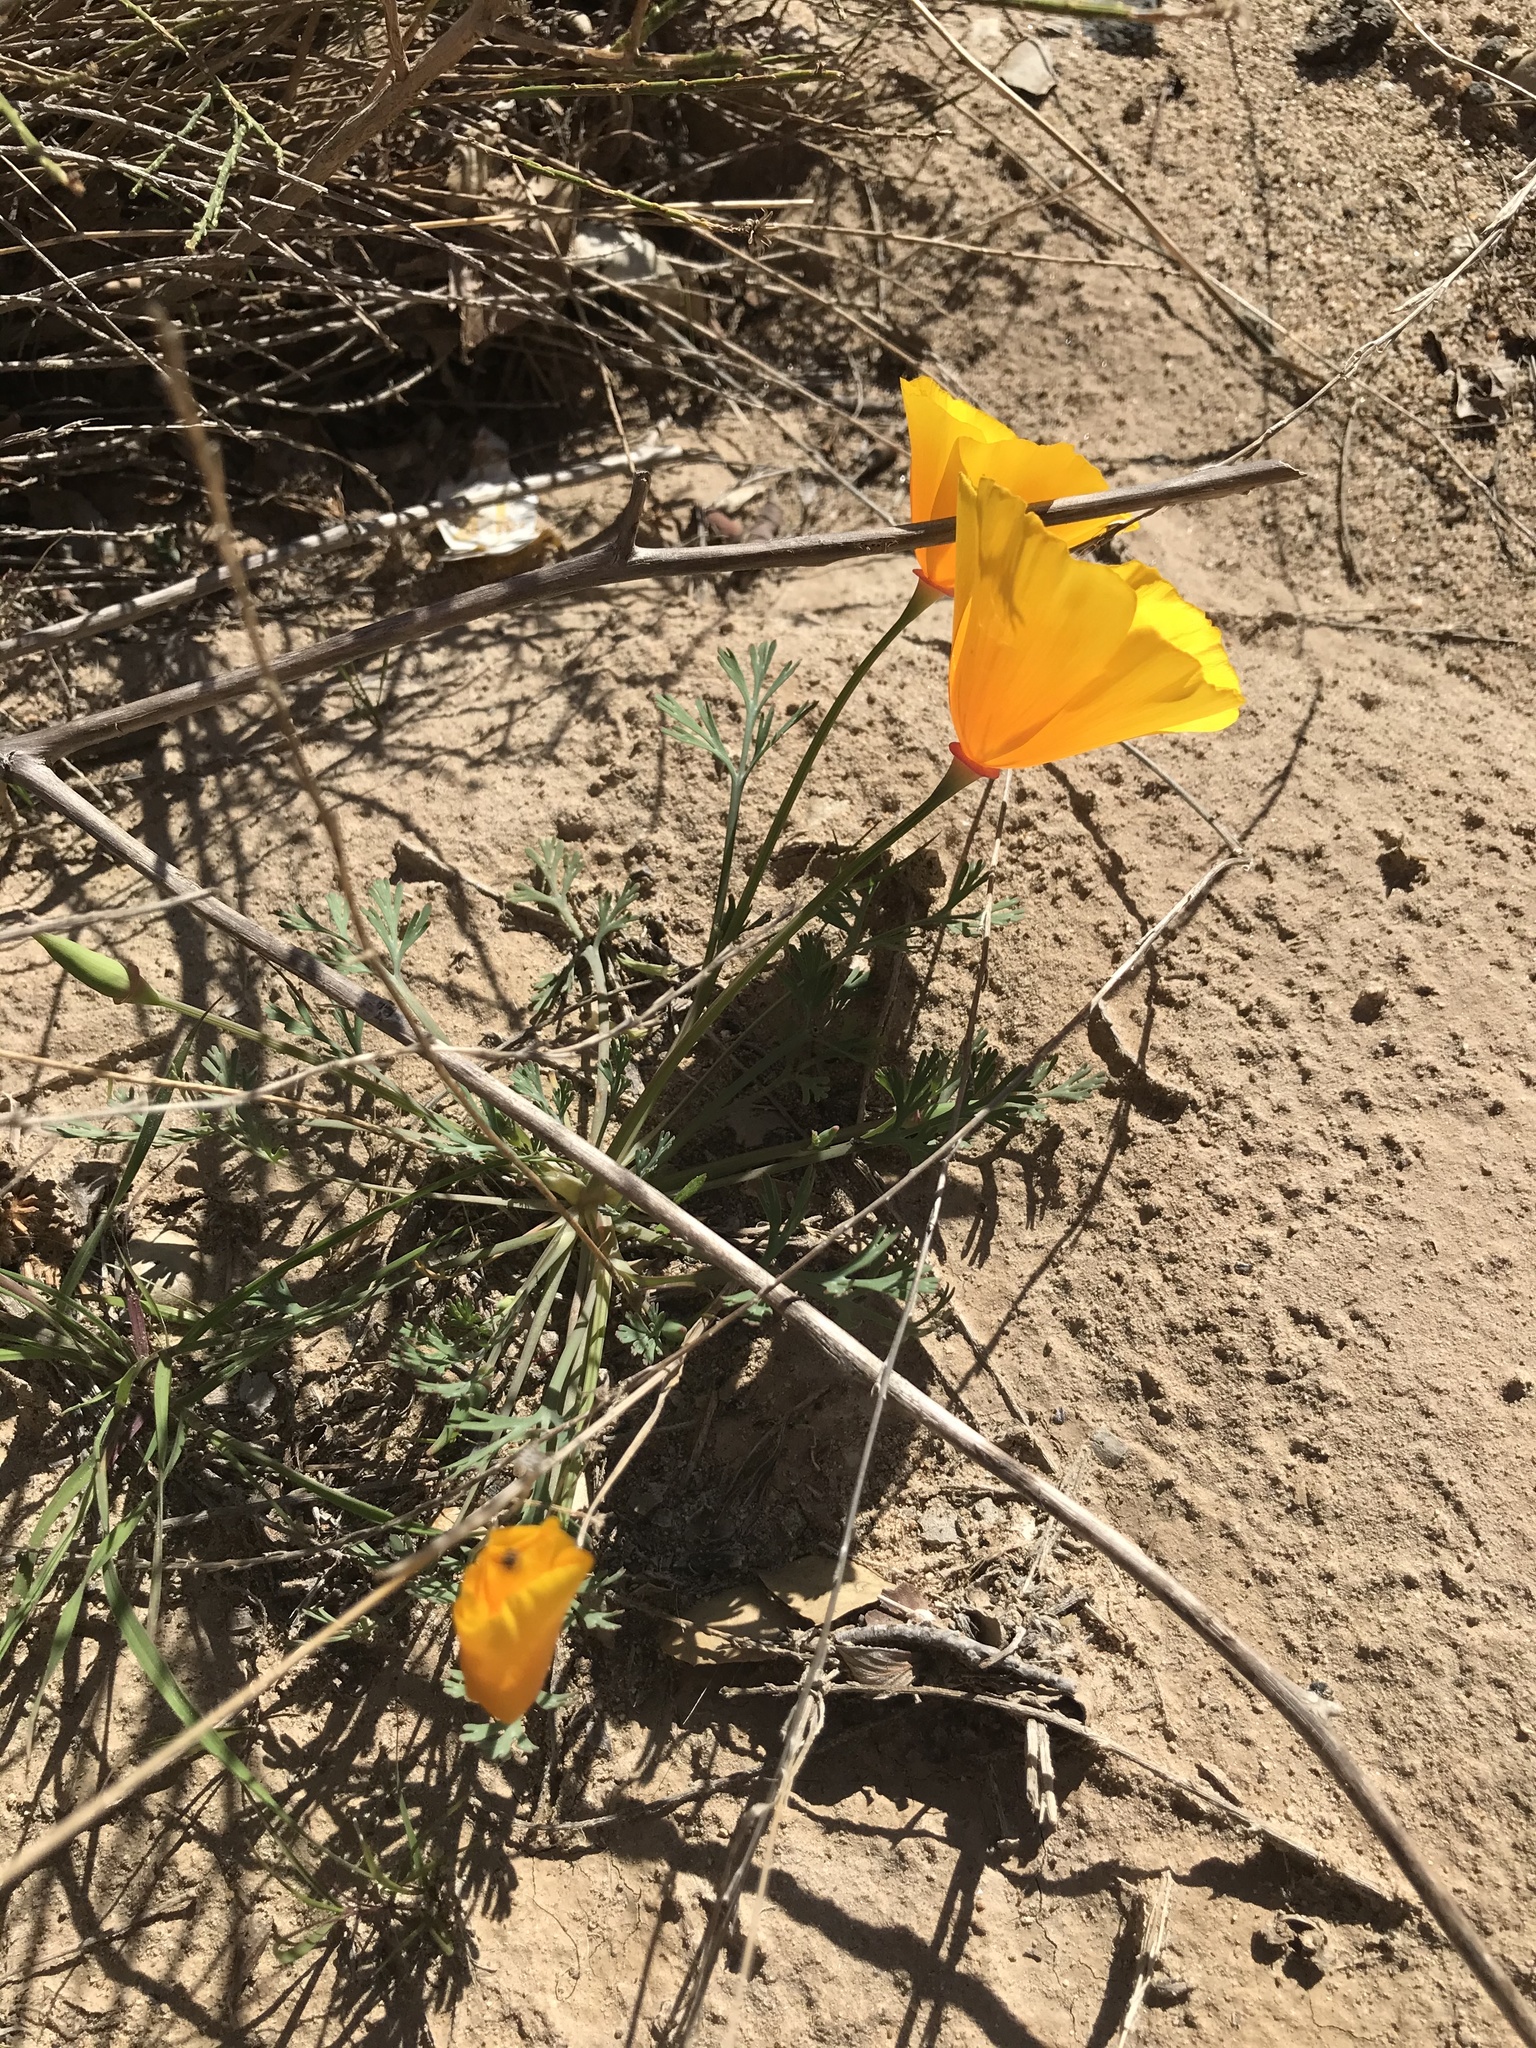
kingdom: Plantae
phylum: Tracheophyta
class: Magnoliopsida
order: Ranunculales
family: Papaveraceae
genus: Eschscholzia
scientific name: Eschscholzia californica
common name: California poppy
